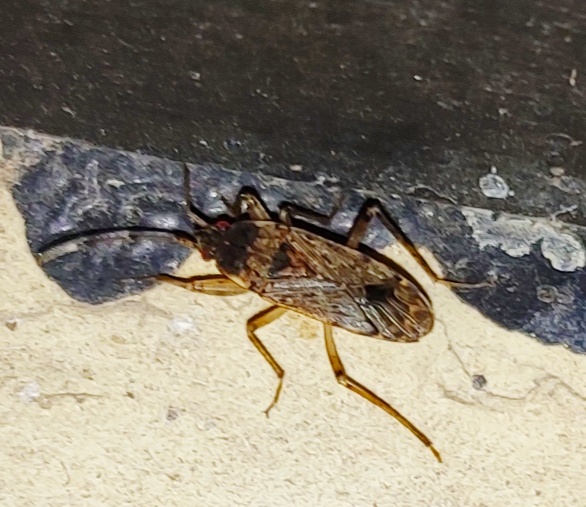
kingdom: Animalia
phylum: Arthropoda
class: Insecta
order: Hemiptera
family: Rhyparochromidae
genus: Elasmolomus
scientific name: Elasmolomus pallens
